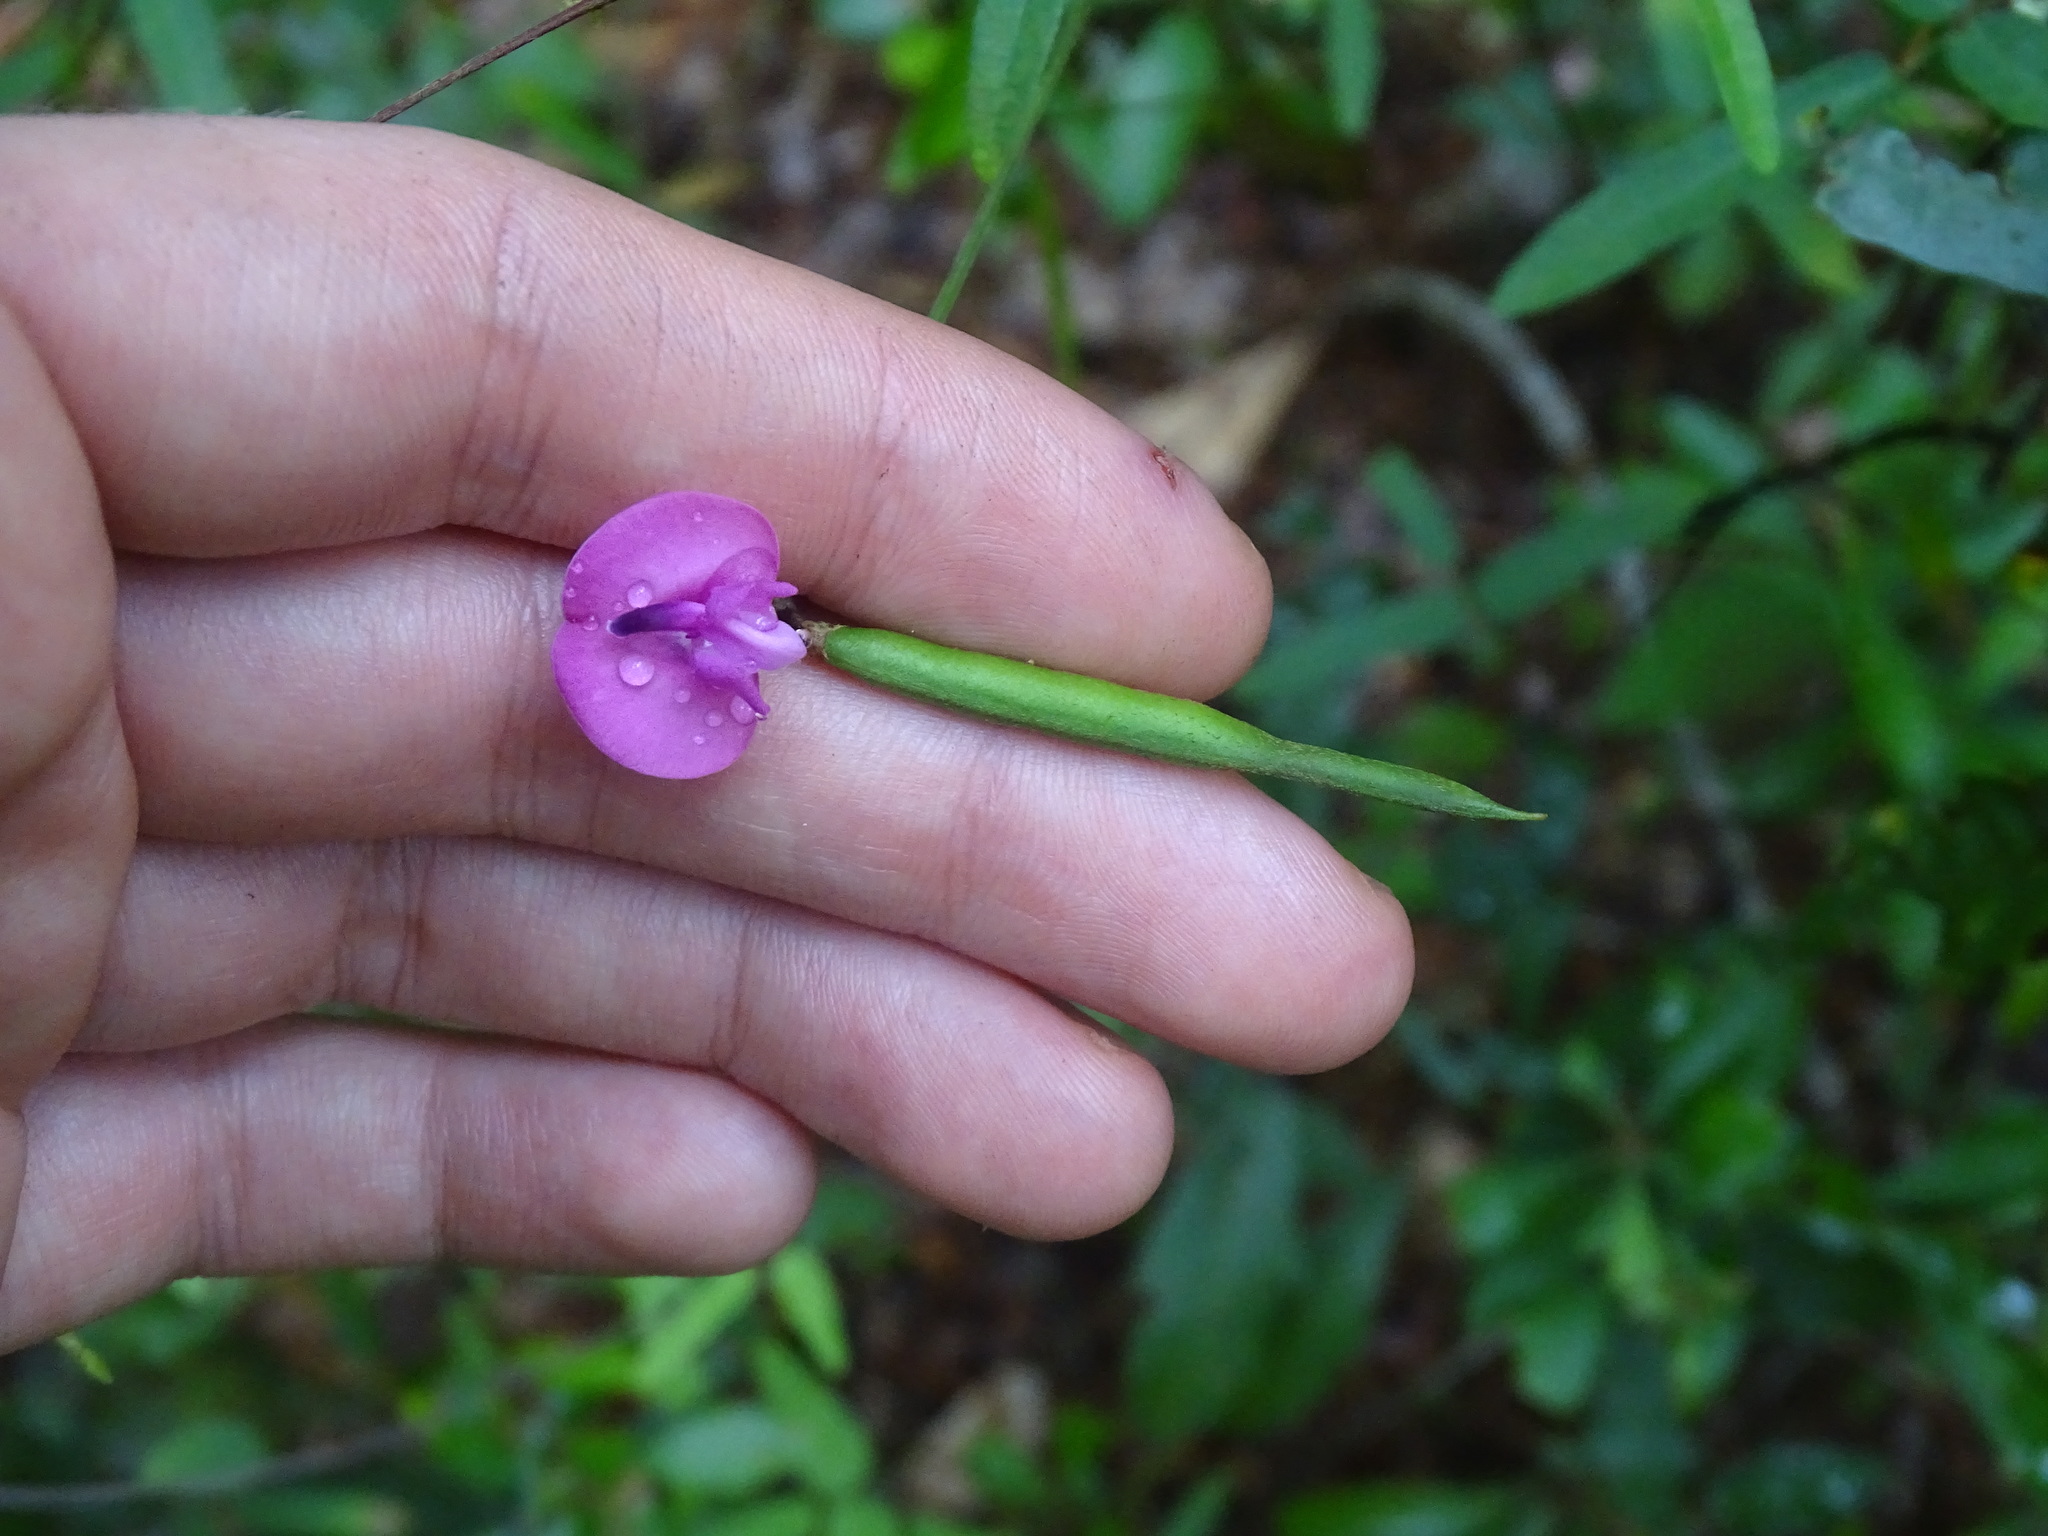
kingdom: Plantae
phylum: Tracheophyta
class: Magnoliopsida
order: Fabales
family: Fabaceae
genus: Strophostyles
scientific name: Strophostyles umbellata
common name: Perennial wild bean
